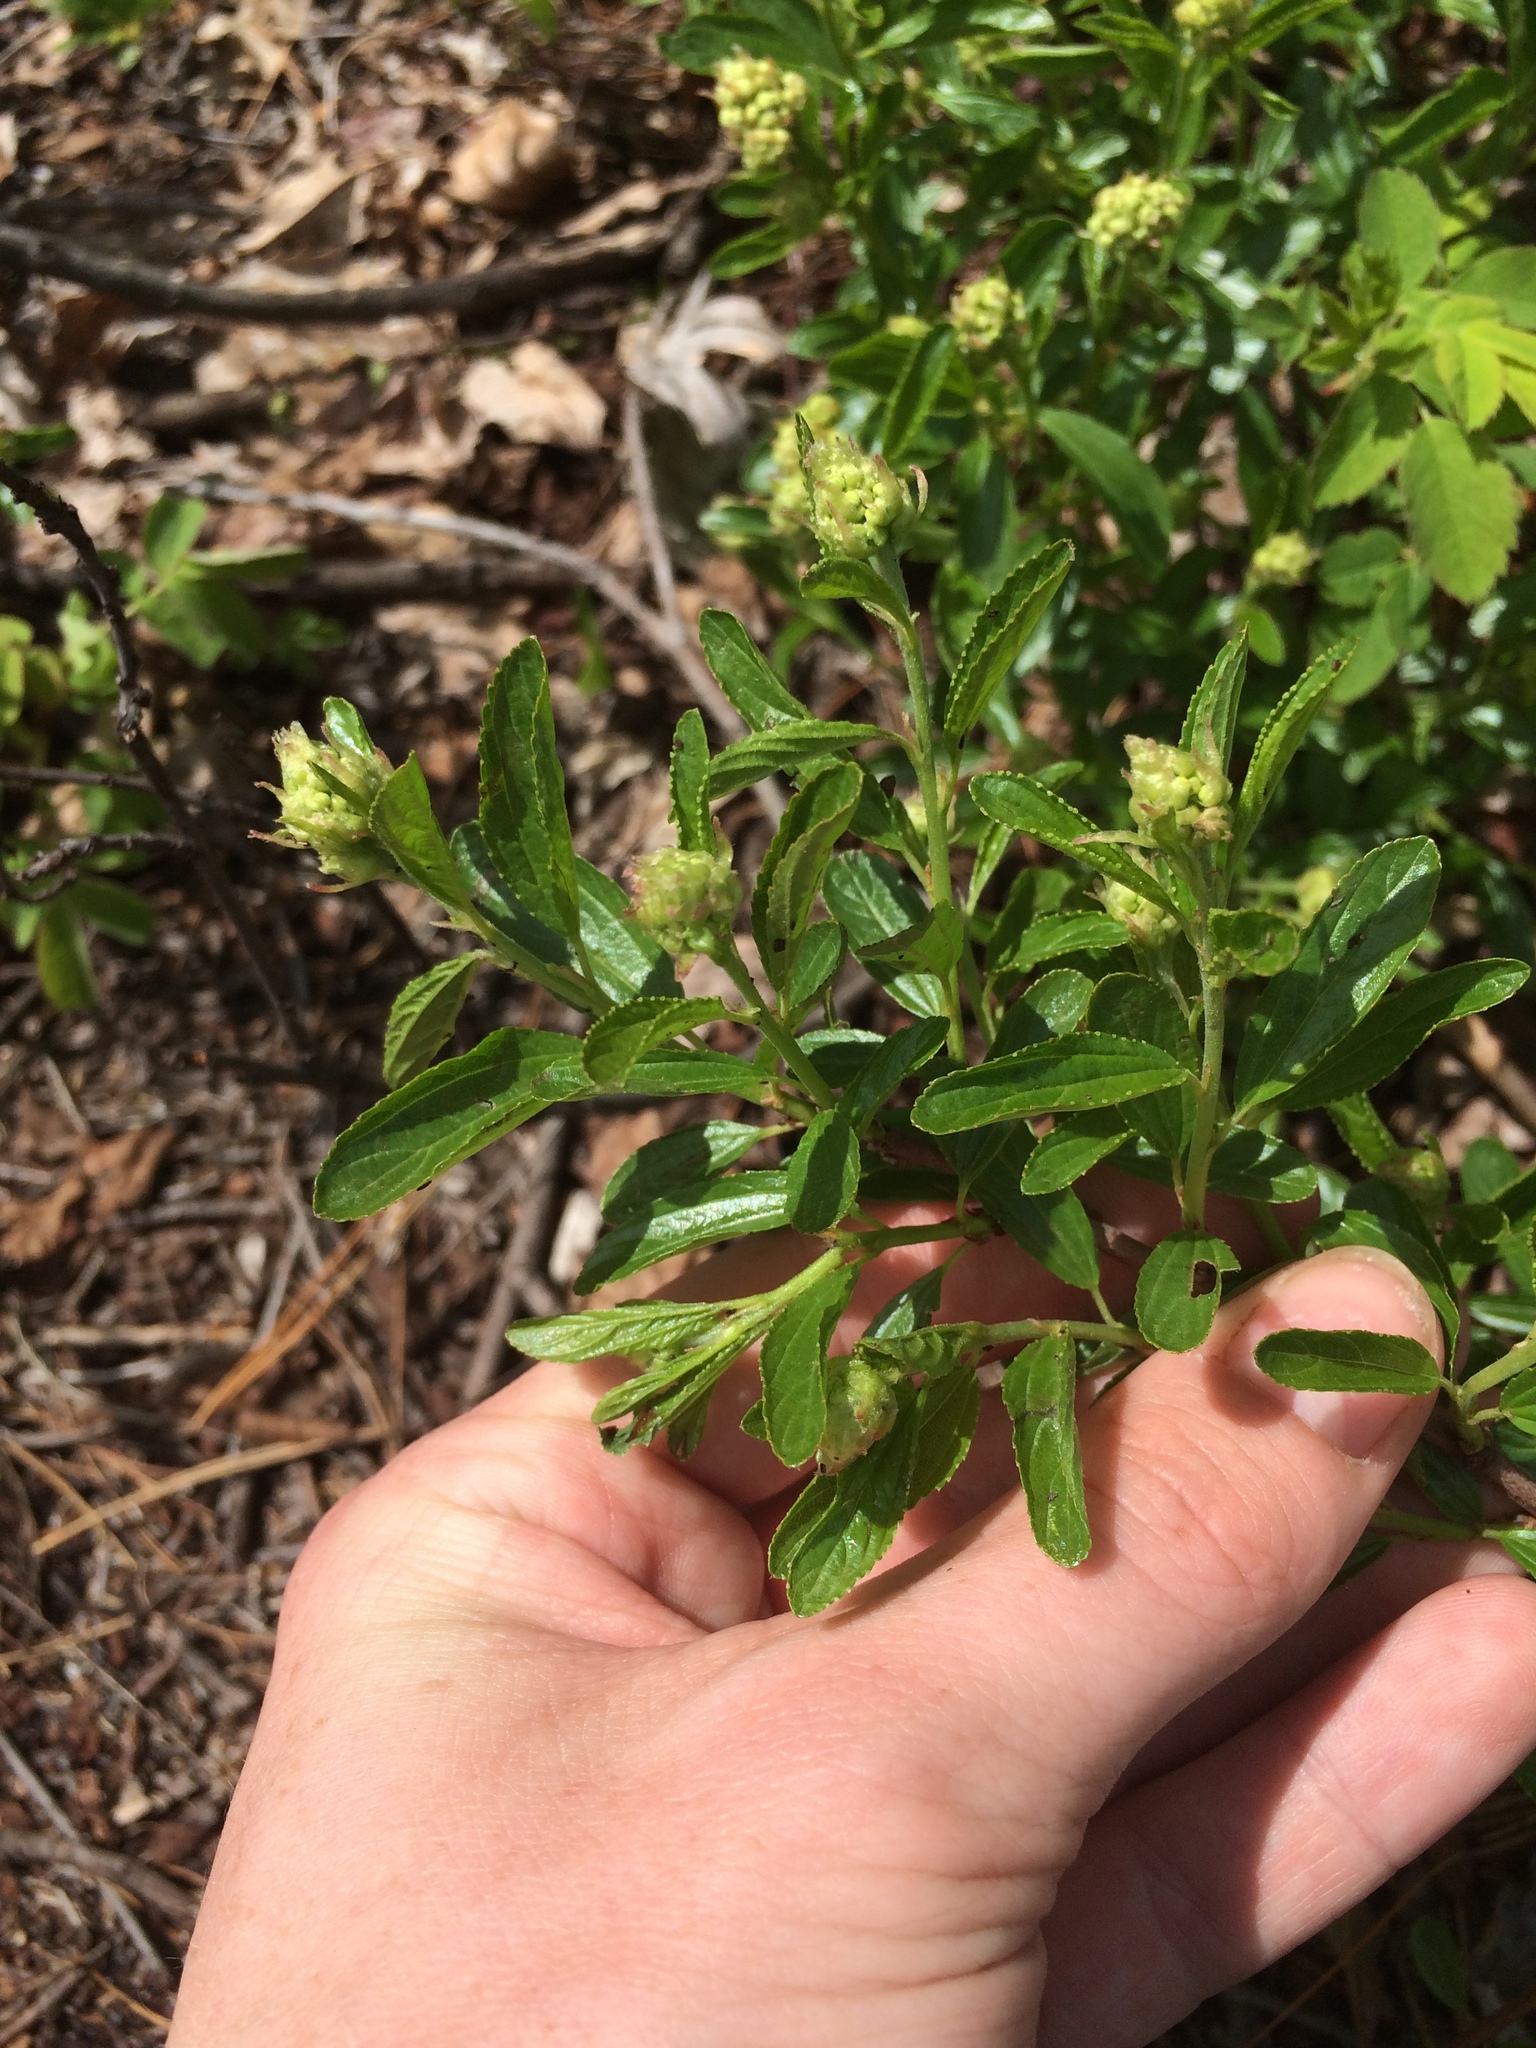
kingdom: Plantae
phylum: Tracheophyta
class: Magnoliopsida
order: Rosales
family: Rhamnaceae
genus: Ceanothus
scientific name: Ceanothus herbaceus
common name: Inland ceanothus
